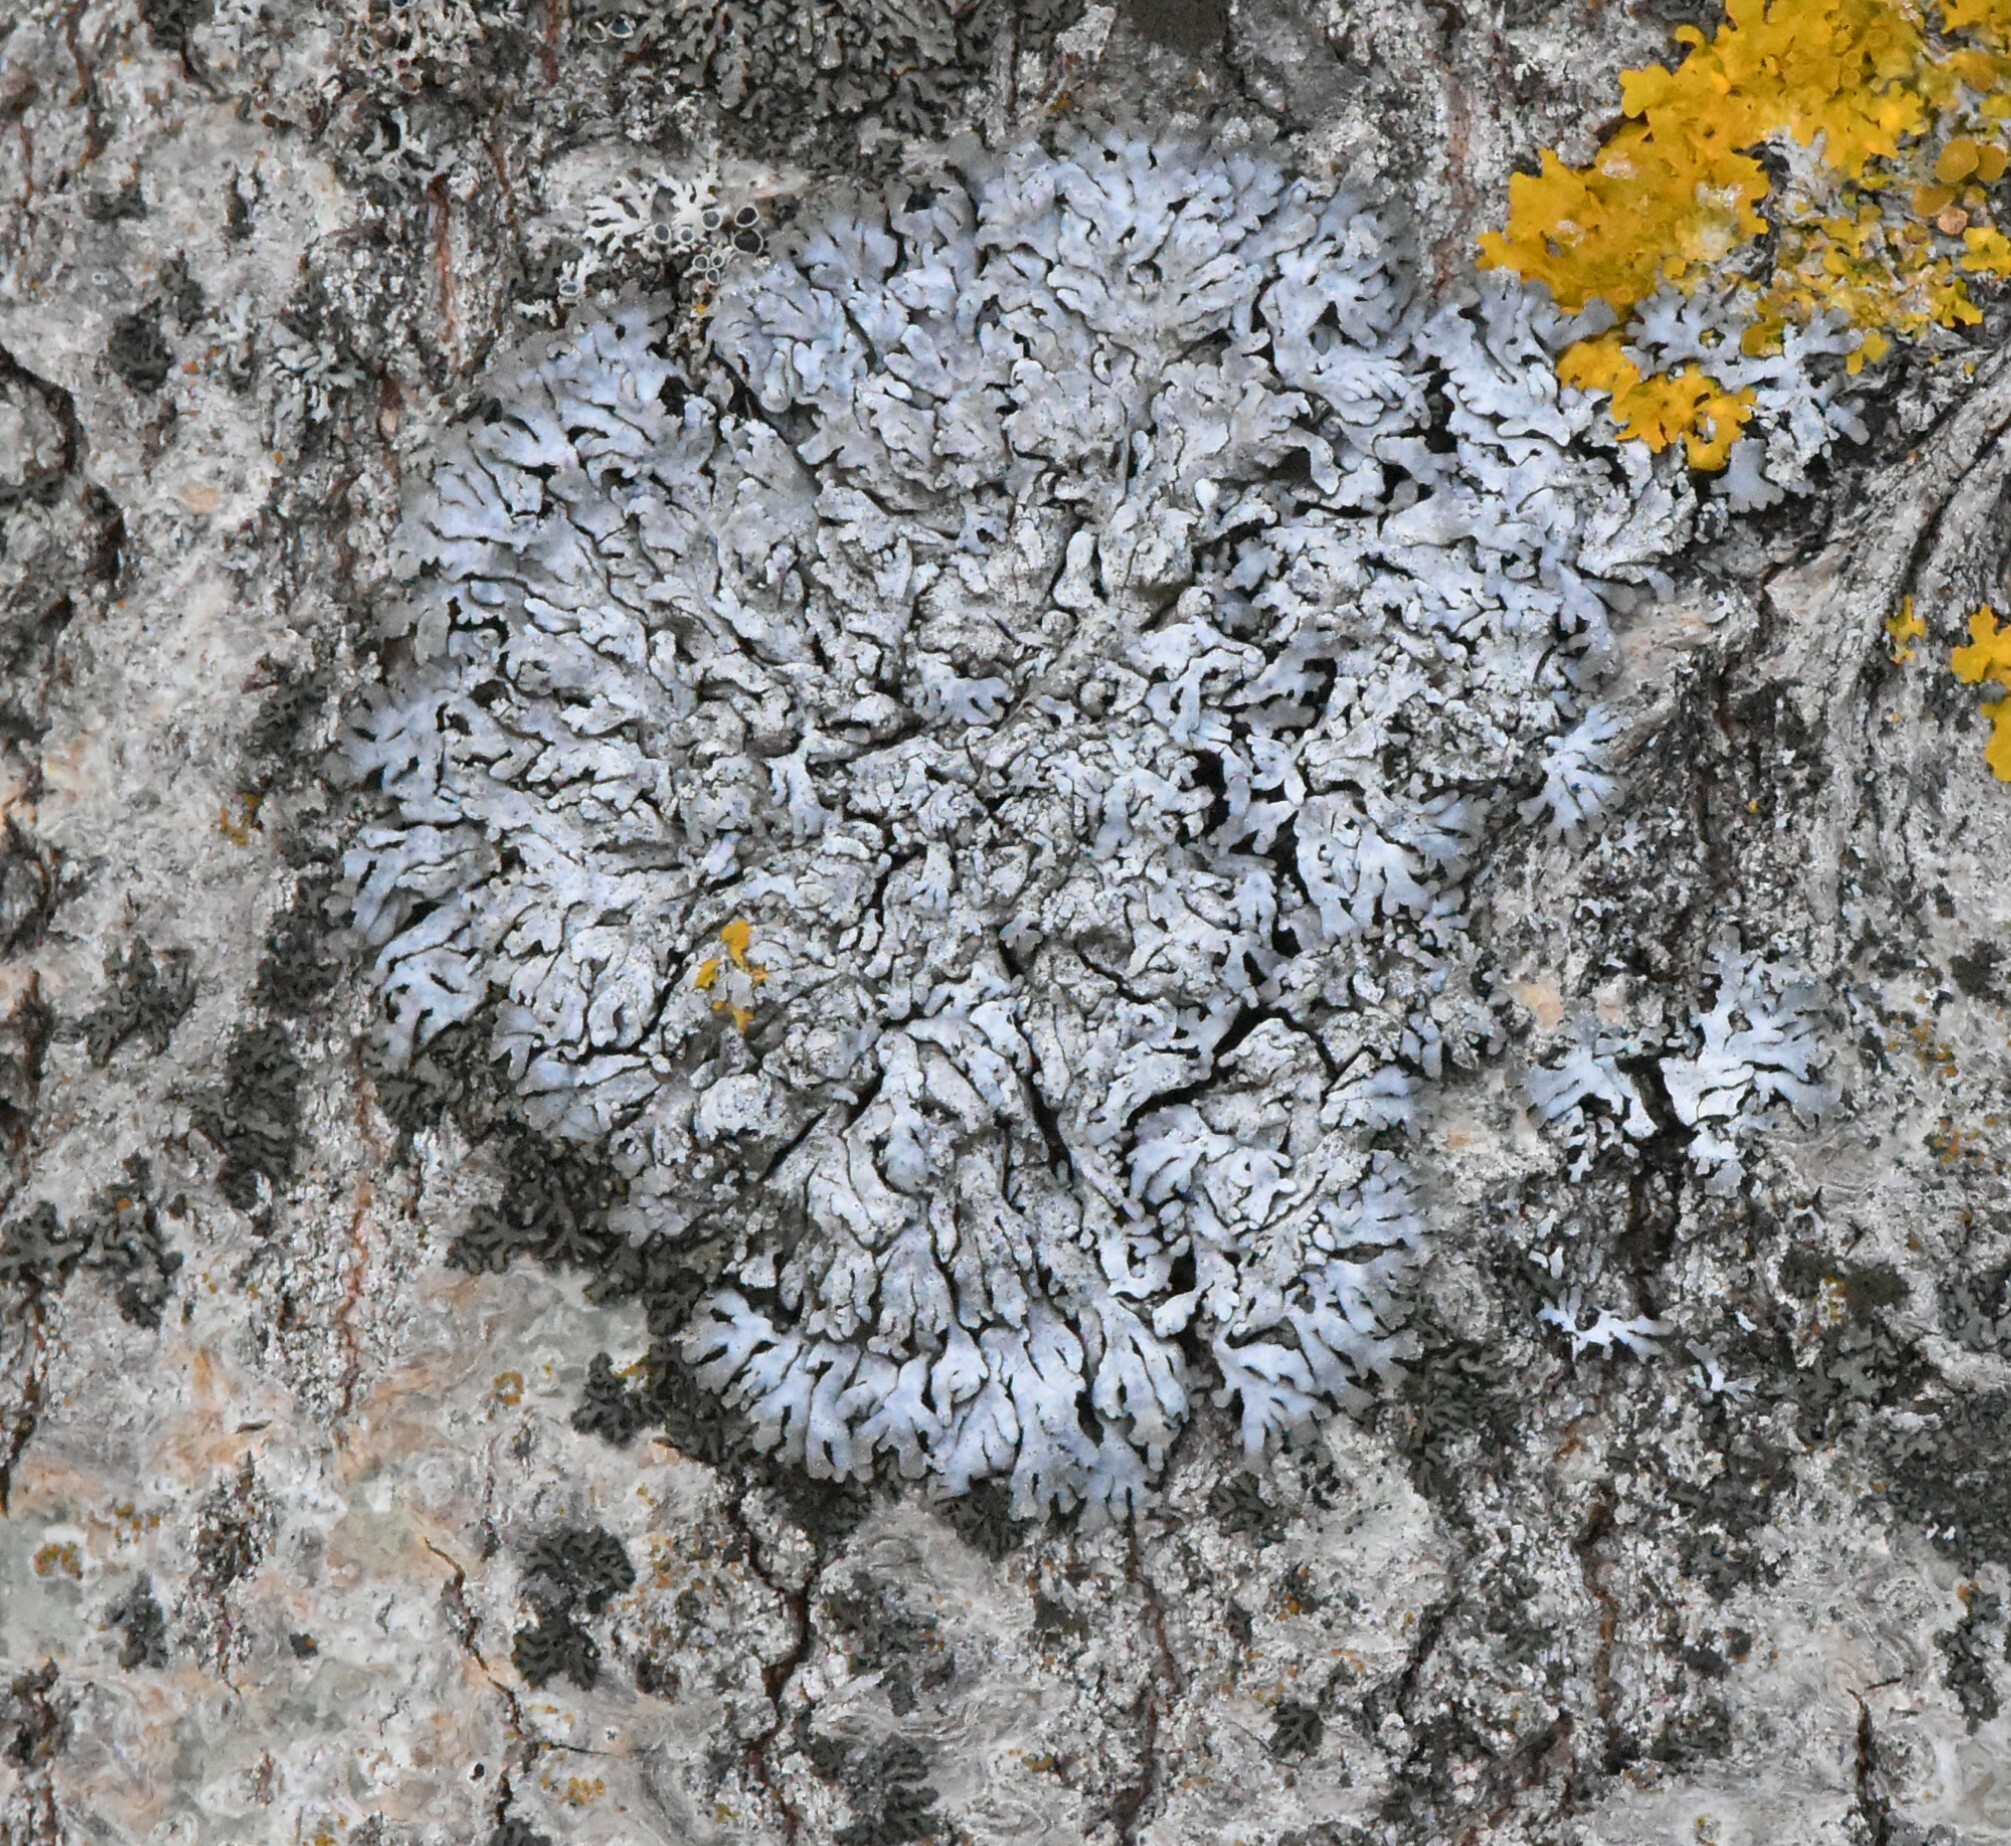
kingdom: Fungi
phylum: Ascomycota
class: Lecanoromycetes
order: Caliciales
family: Physciaceae
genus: Physconia
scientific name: Physconia distorta
